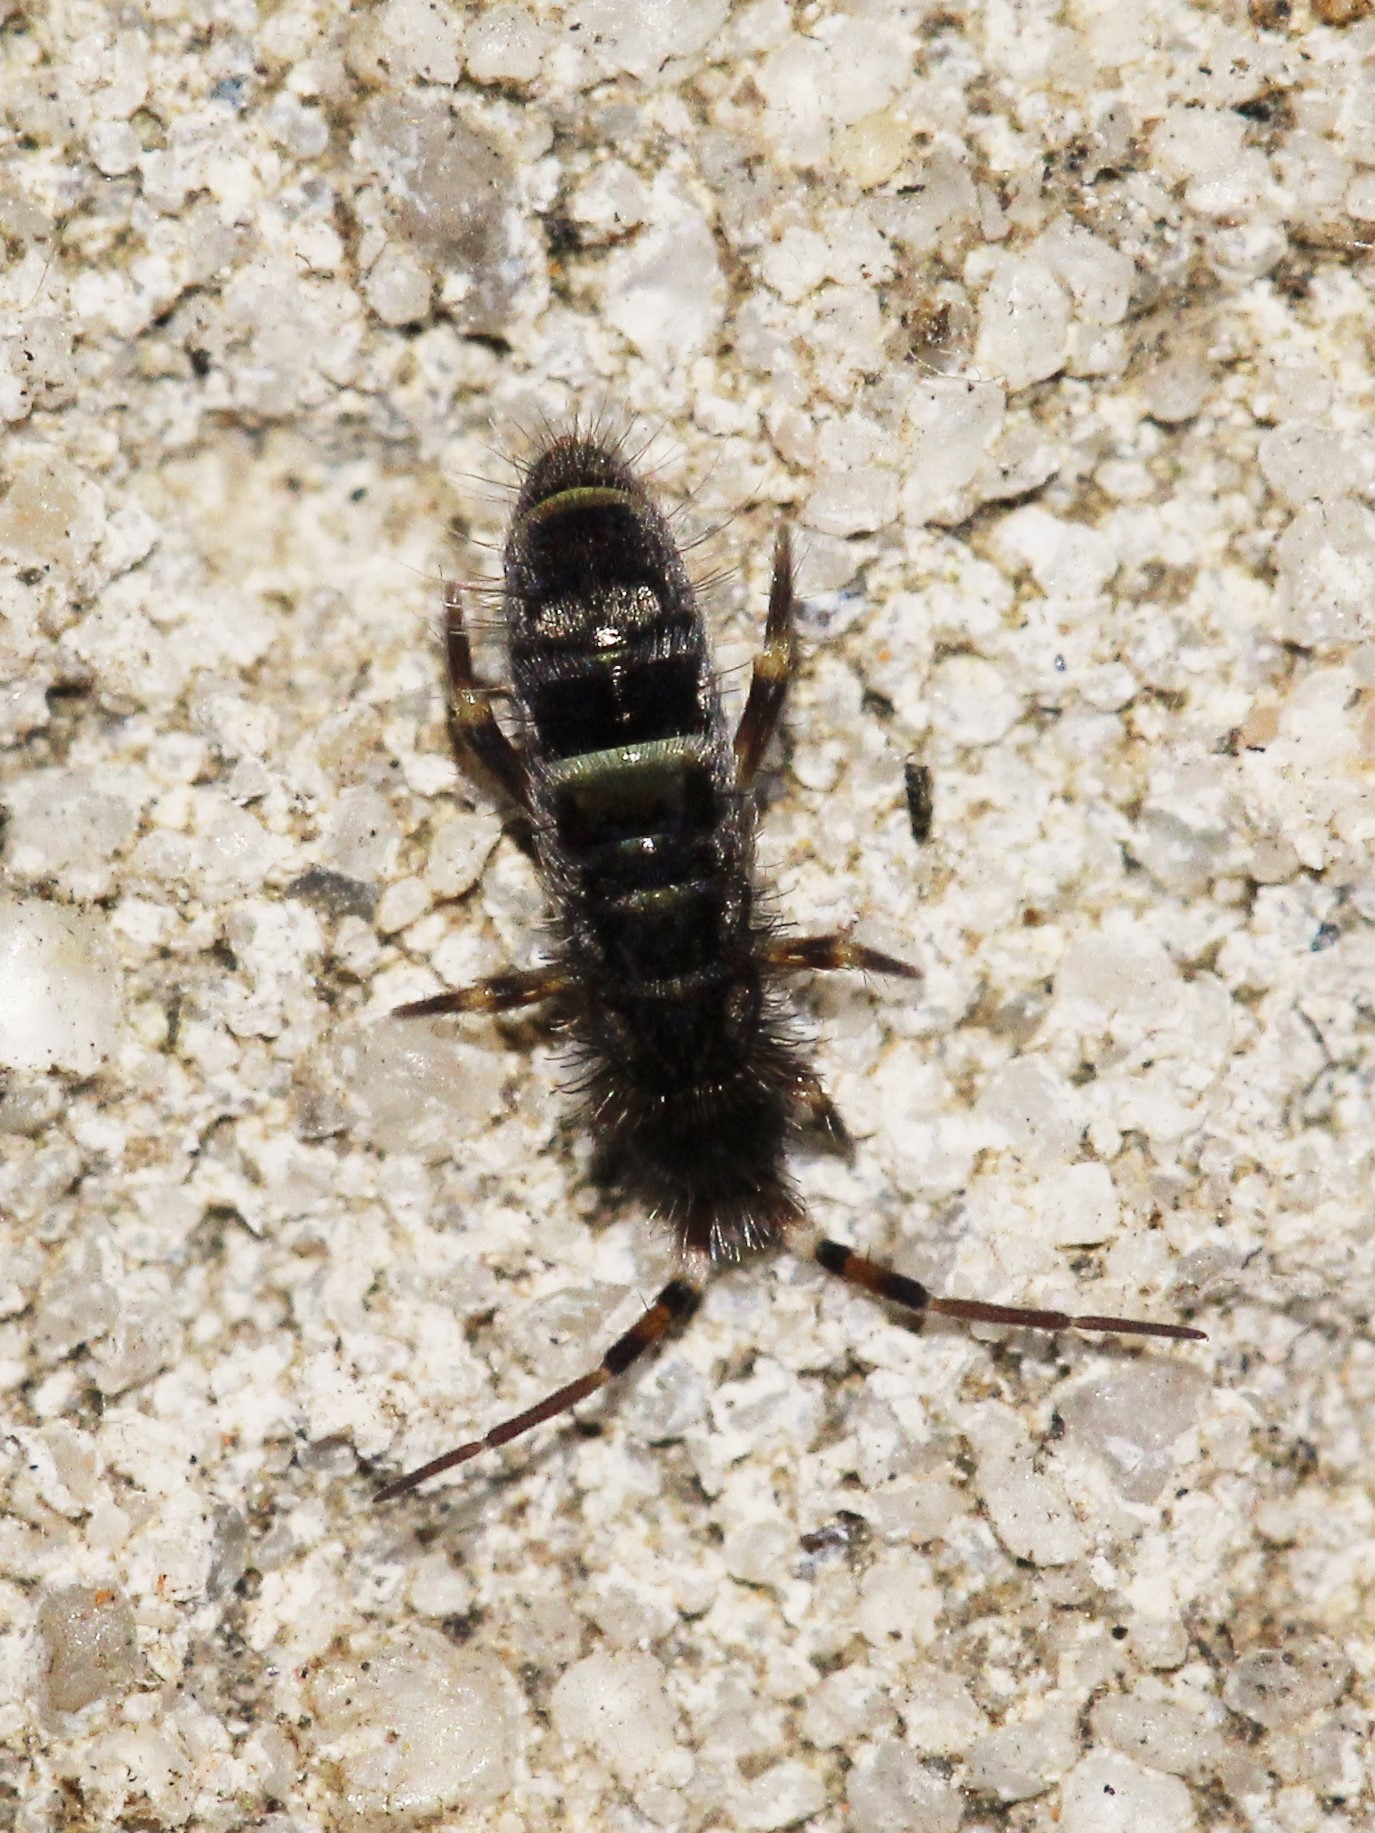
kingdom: Animalia
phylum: Arthropoda
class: Collembola
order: Entomobryomorpha
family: Orchesellidae
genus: Orchesella
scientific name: Orchesella cincta
